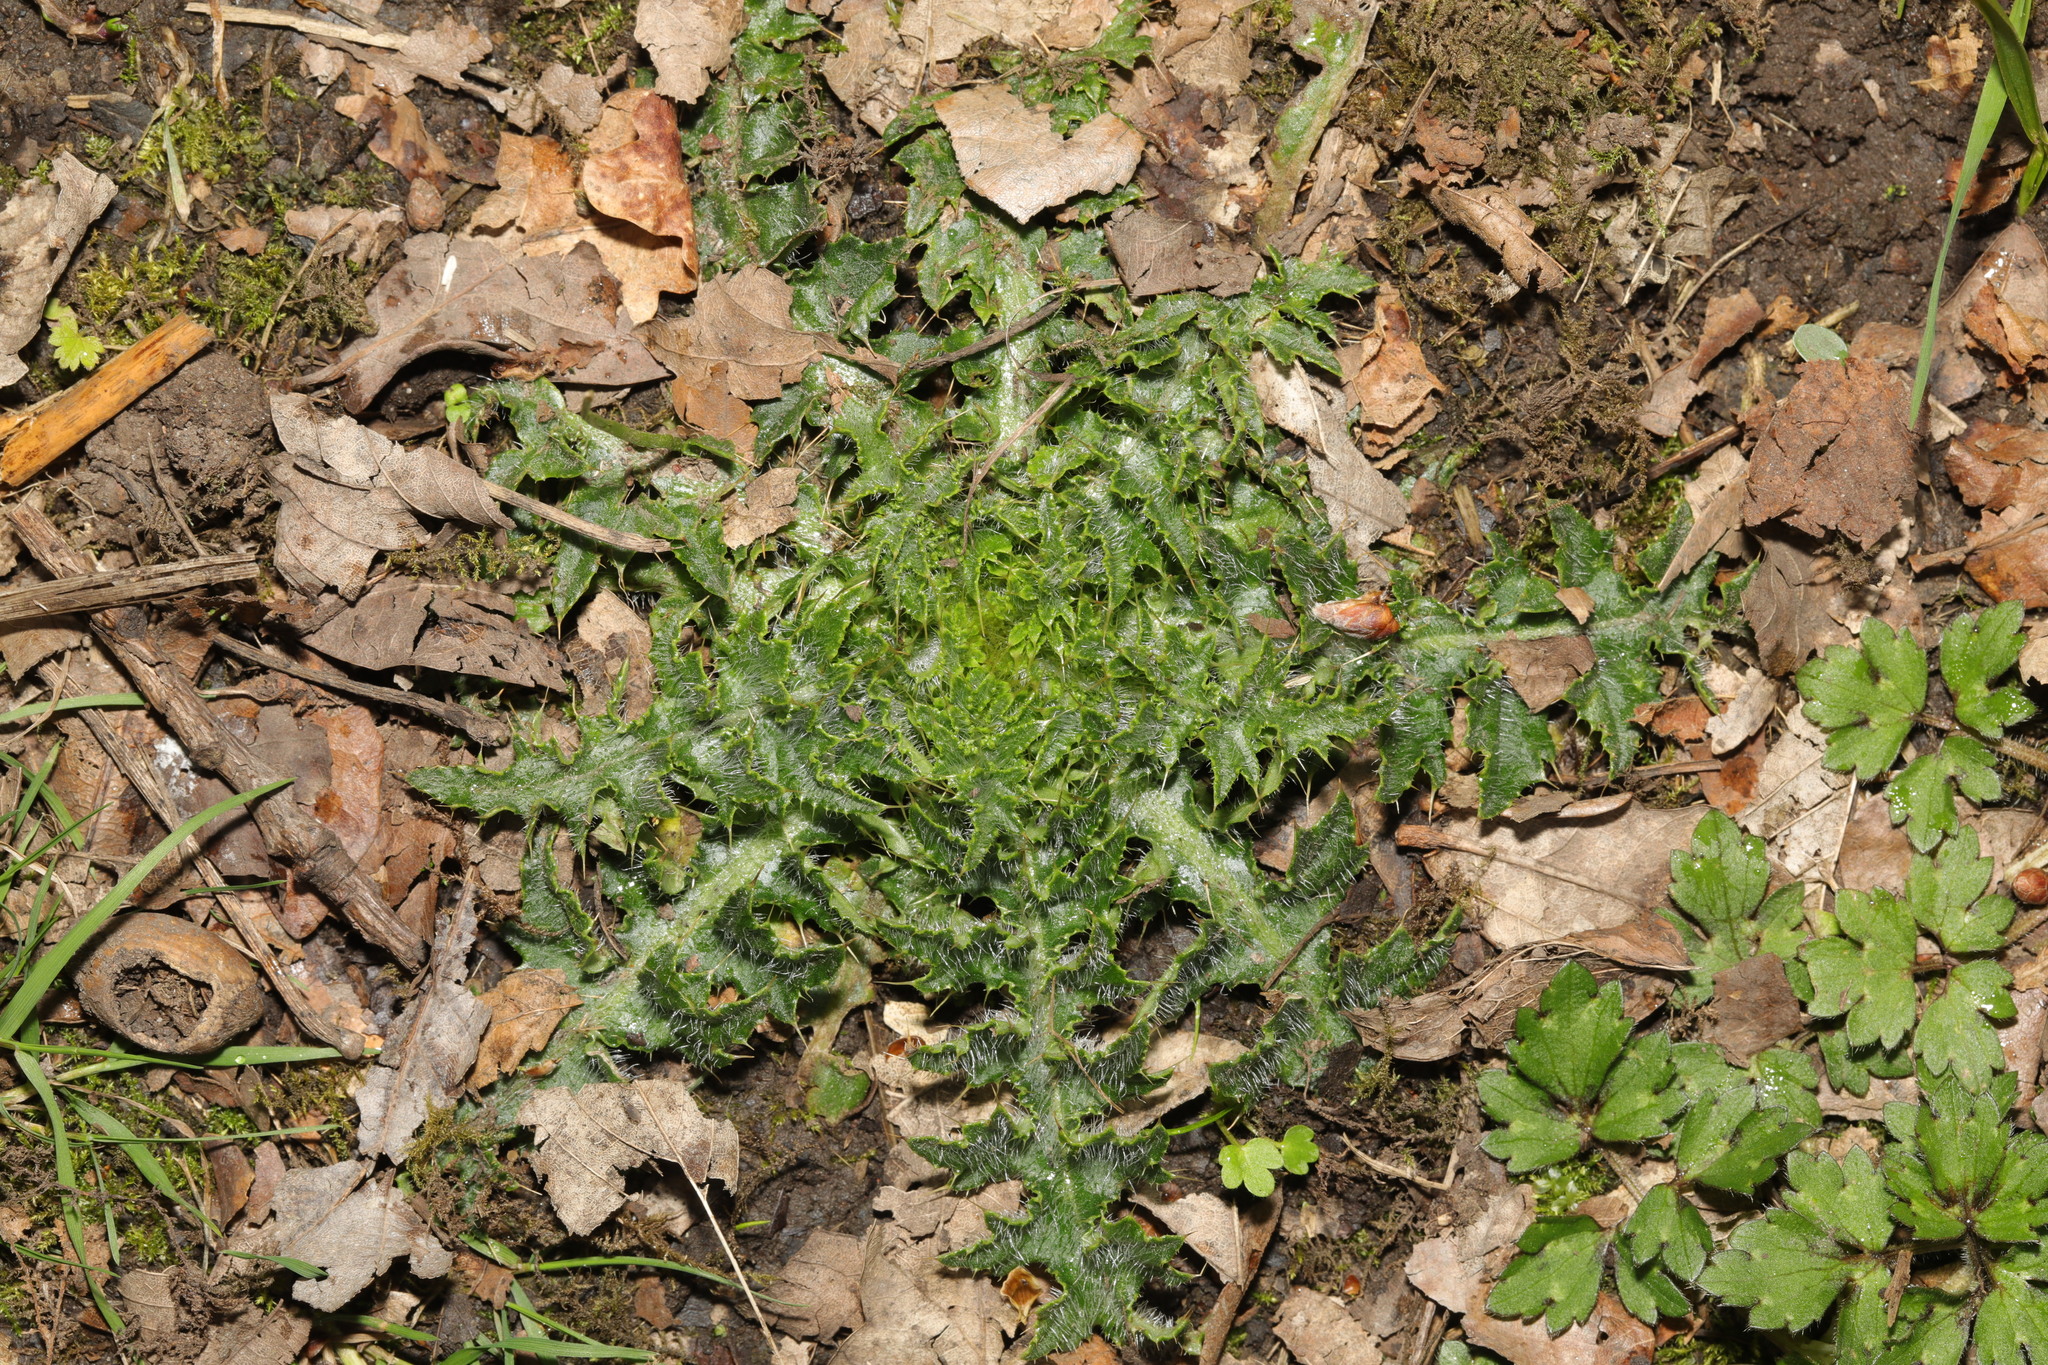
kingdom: Plantae
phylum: Tracheophyta
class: Magnoliopsida
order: Asterales
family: Asteraceae
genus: Cirsium
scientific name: Cirsium palustre
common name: Marsh thistle
